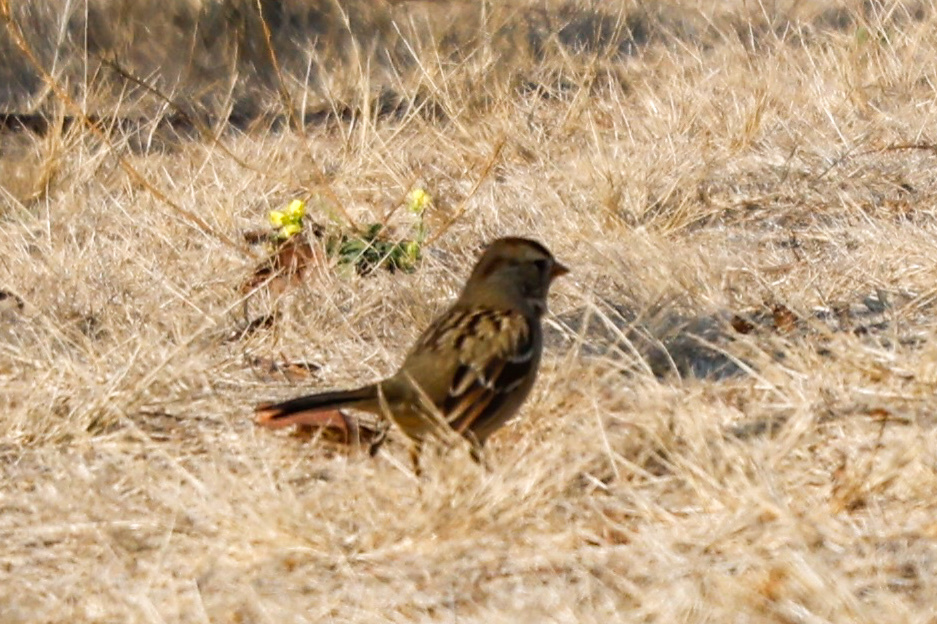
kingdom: Animalia
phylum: Chordata
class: Aves
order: Passeriformes
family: Passerellidae
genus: Zonotrichia
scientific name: Zonotrichia leucophrys
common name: White-crowned sparrow
